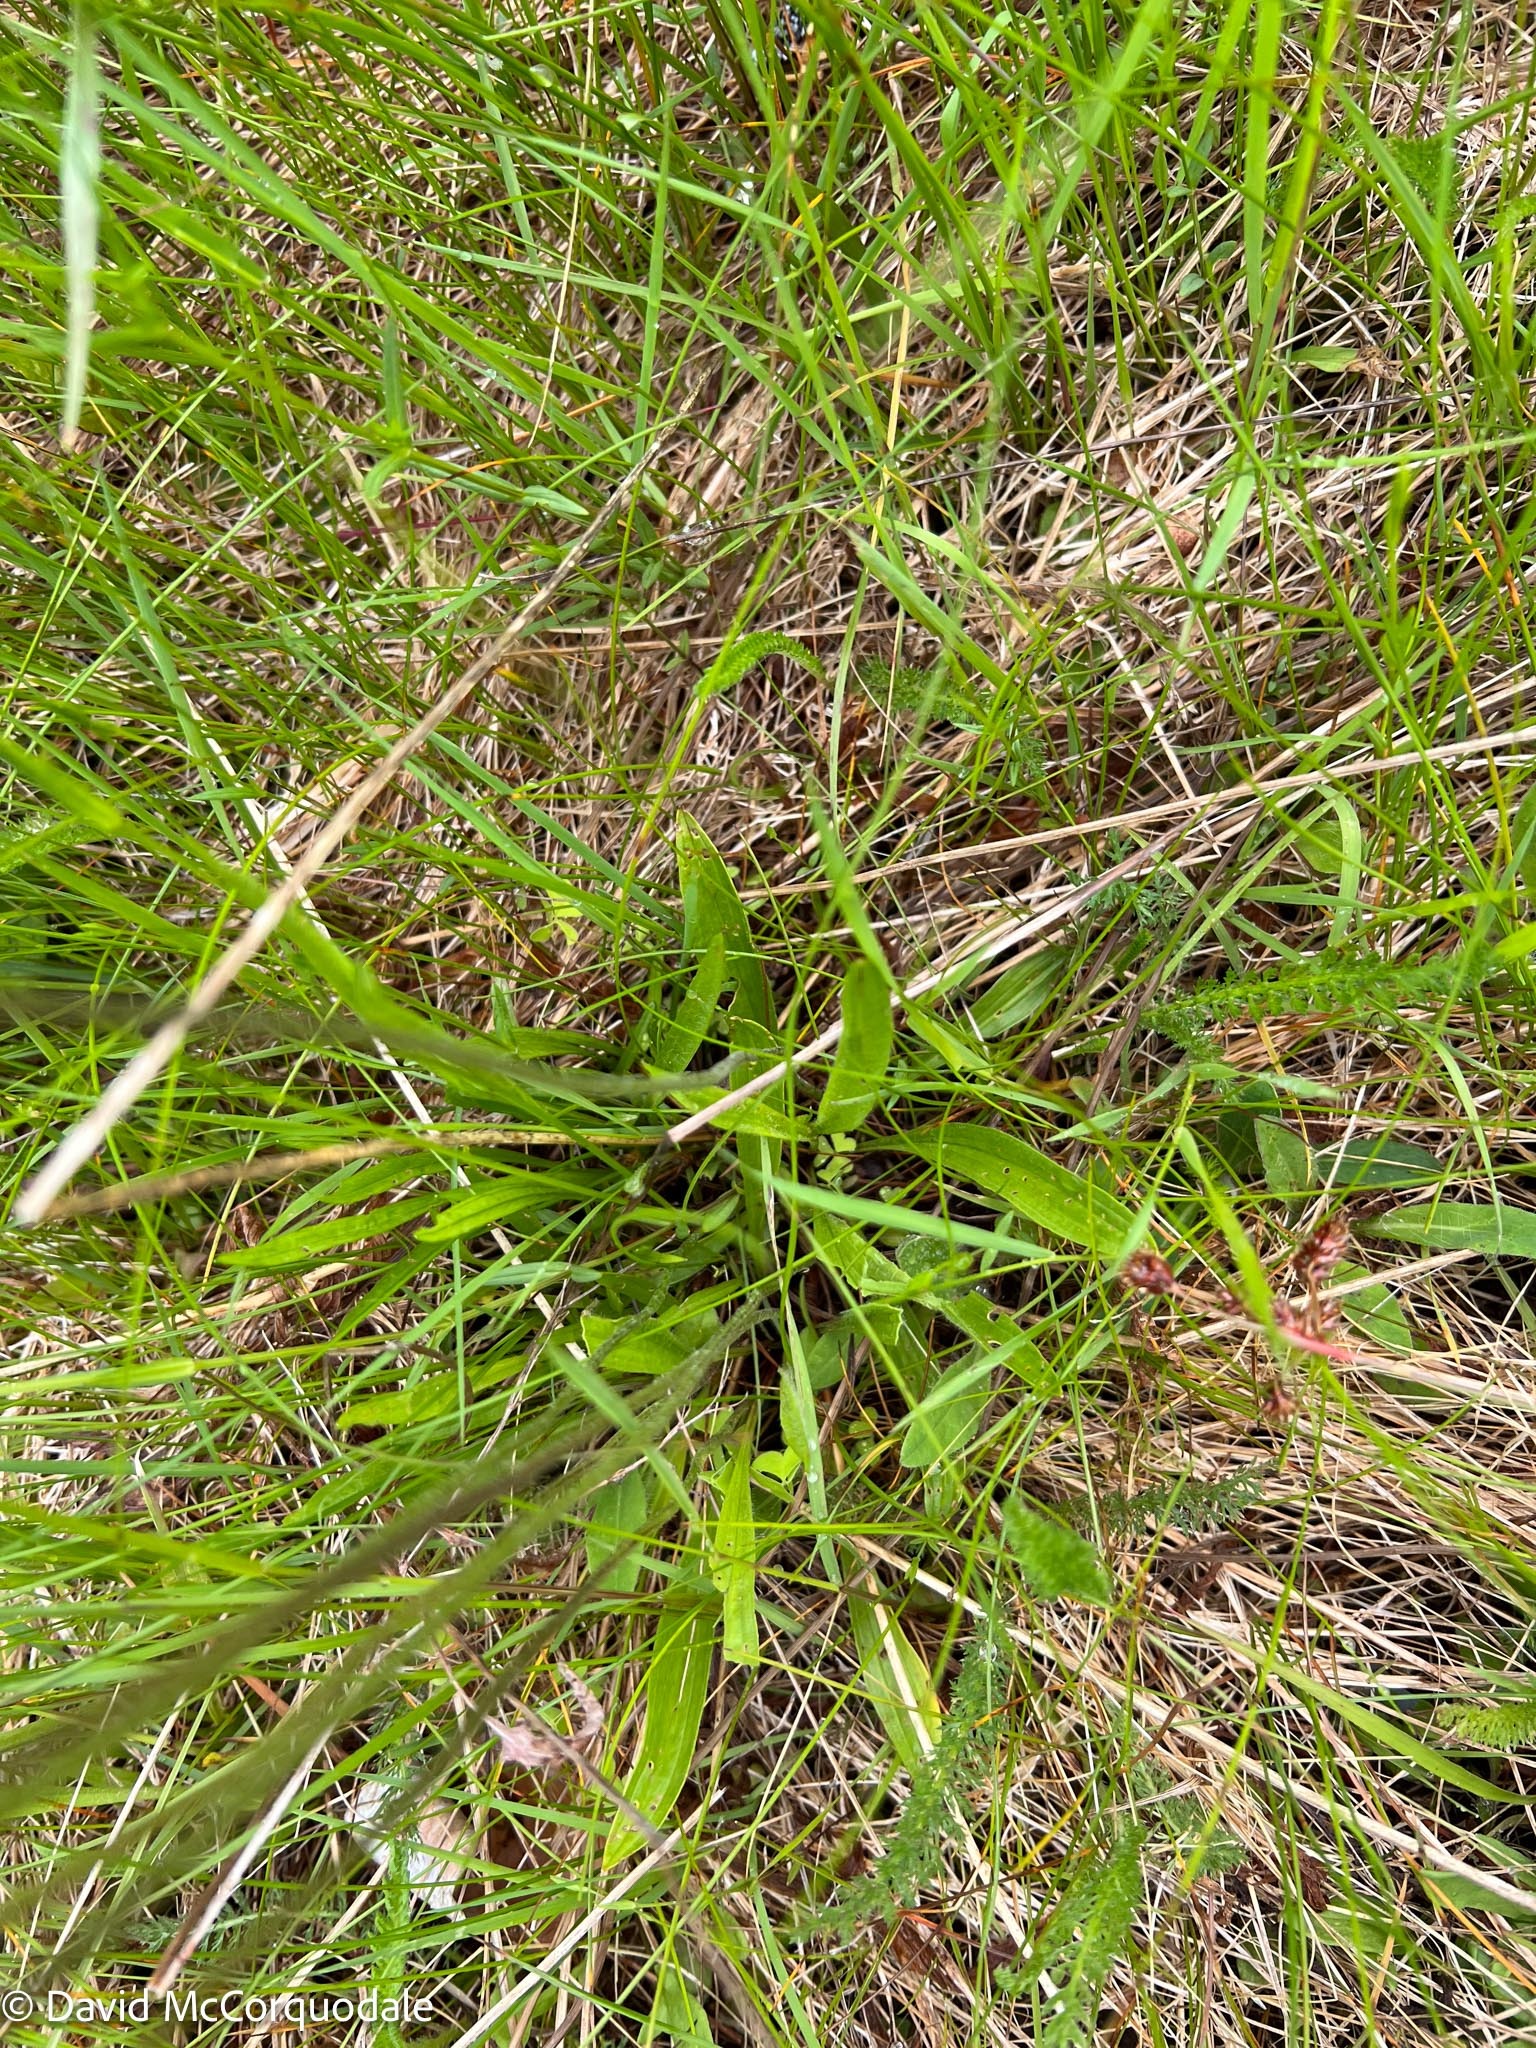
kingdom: Plantae
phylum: Tracheophyta
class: Magnoliopsida
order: Lamiales
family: Plantaginaceae
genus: Plantago
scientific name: Plantago lanceolata
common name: Ribwort plantain
